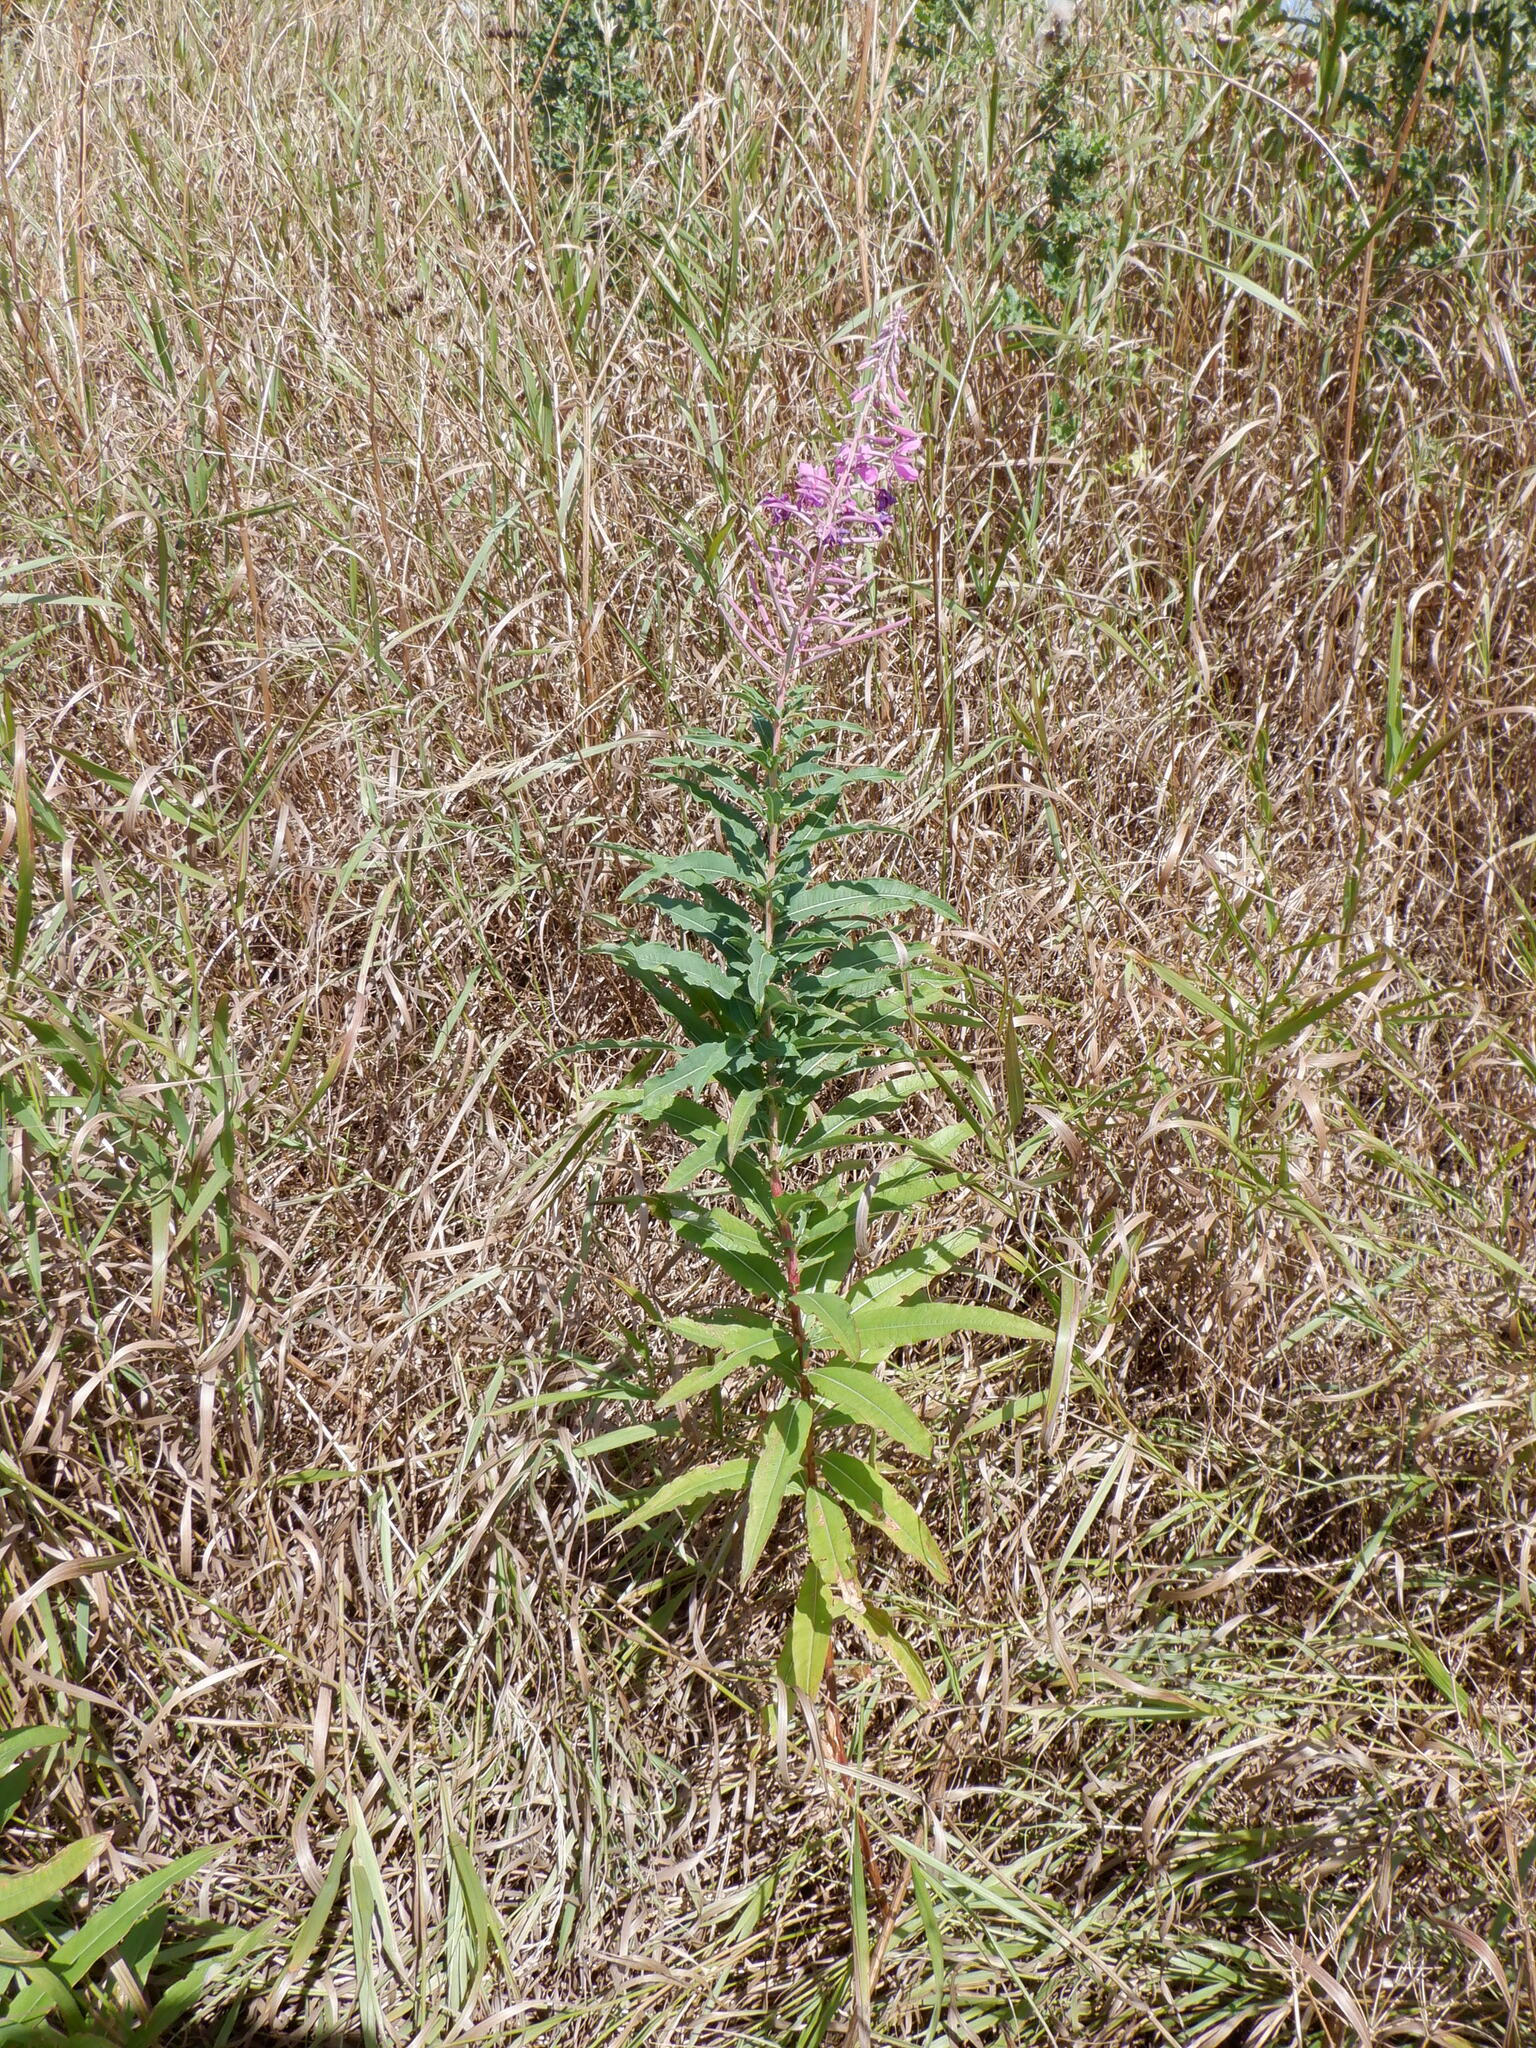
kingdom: Plantae
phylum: Tracheophyta
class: Magnoliopsida
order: Myrtales
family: Onagraceae
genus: Chamaenerion
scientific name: Chamaenerion angustifolium
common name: Fireweed
